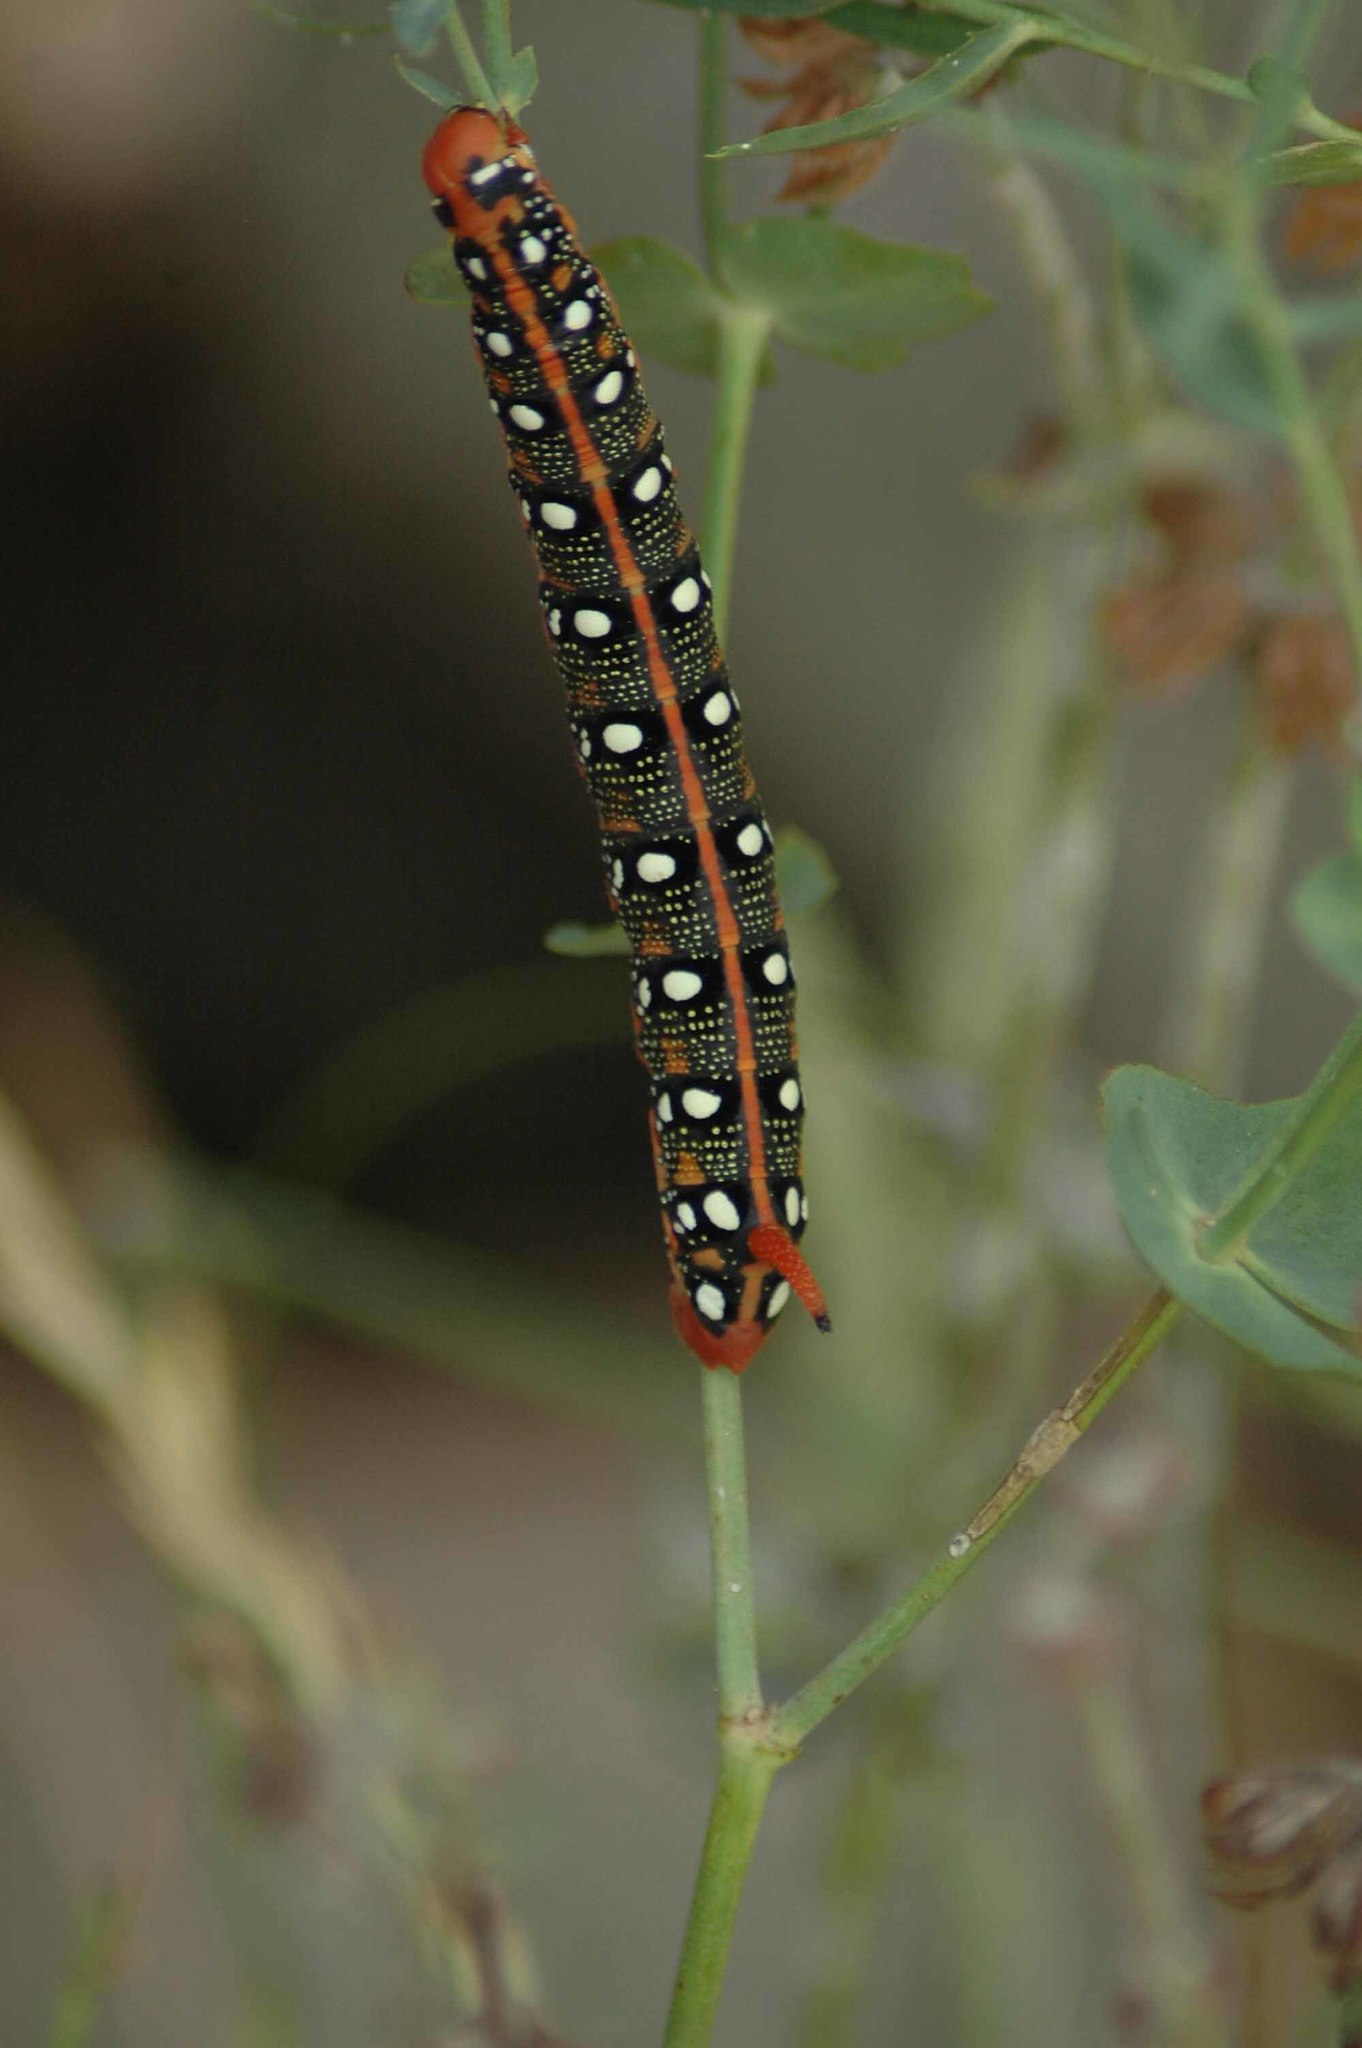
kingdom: Animalia
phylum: Arthropoda
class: Insecta
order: Lepidoptera
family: Sphingidae
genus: Hyles
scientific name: Hyles euphorbiae
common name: Spurge hawk-moth
